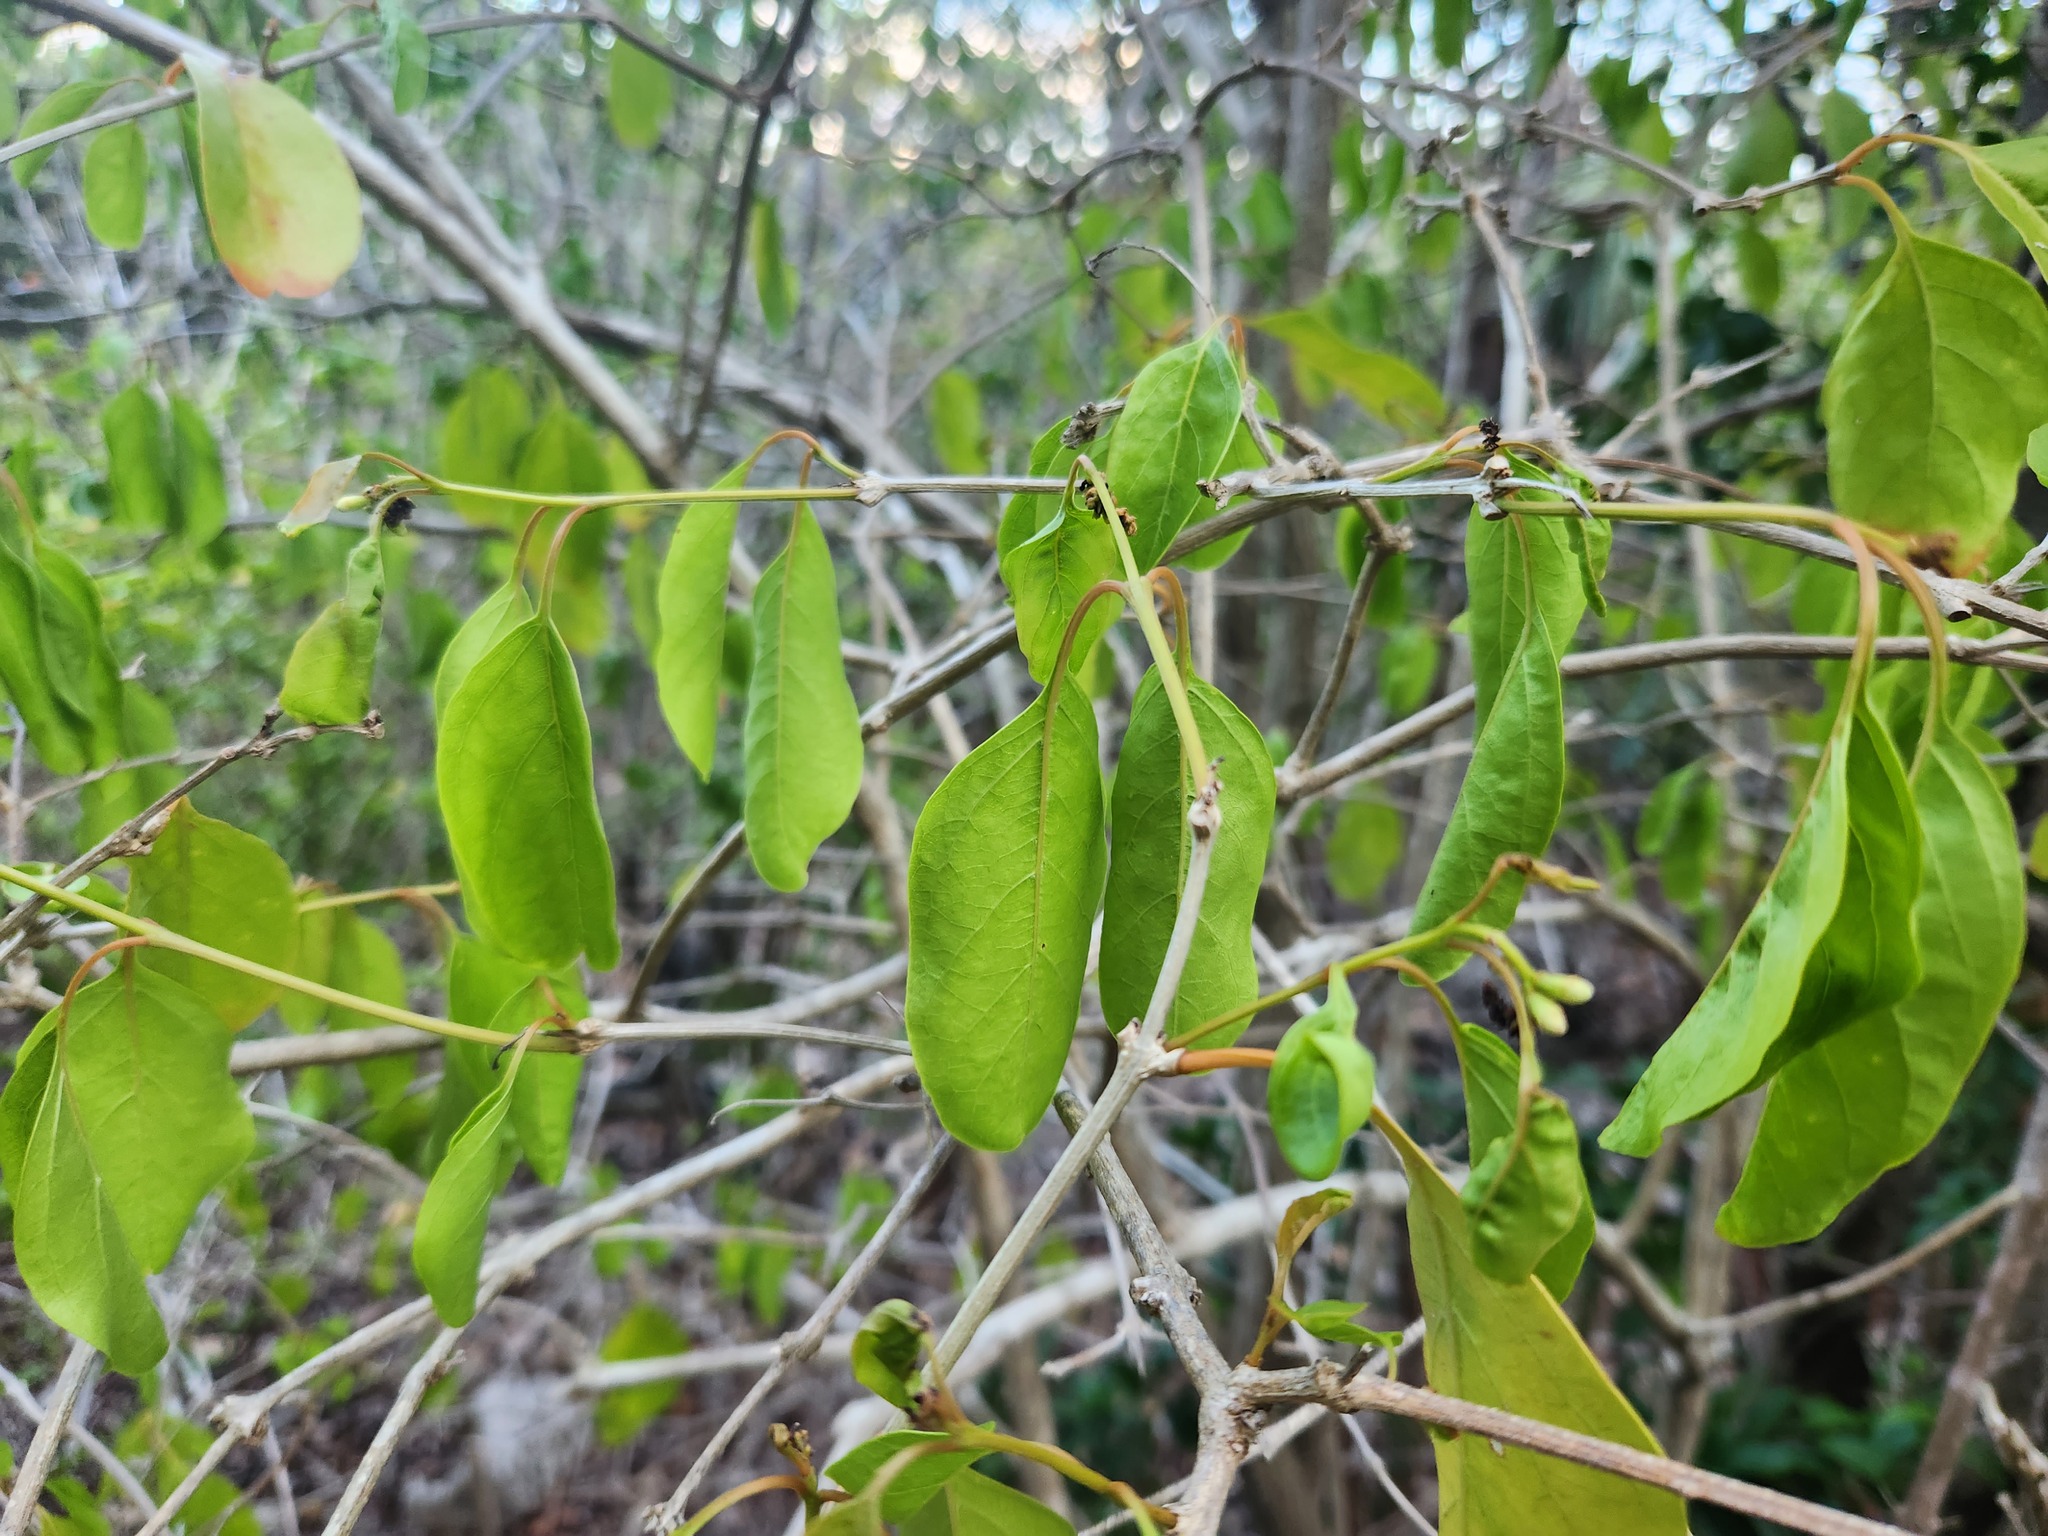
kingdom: Plantae
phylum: Tracheophyta
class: Magnoliopsida
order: Lamiales
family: Verbenaceae
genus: Citharexylum
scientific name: Citharexylum spinosum
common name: Fiddlewood
